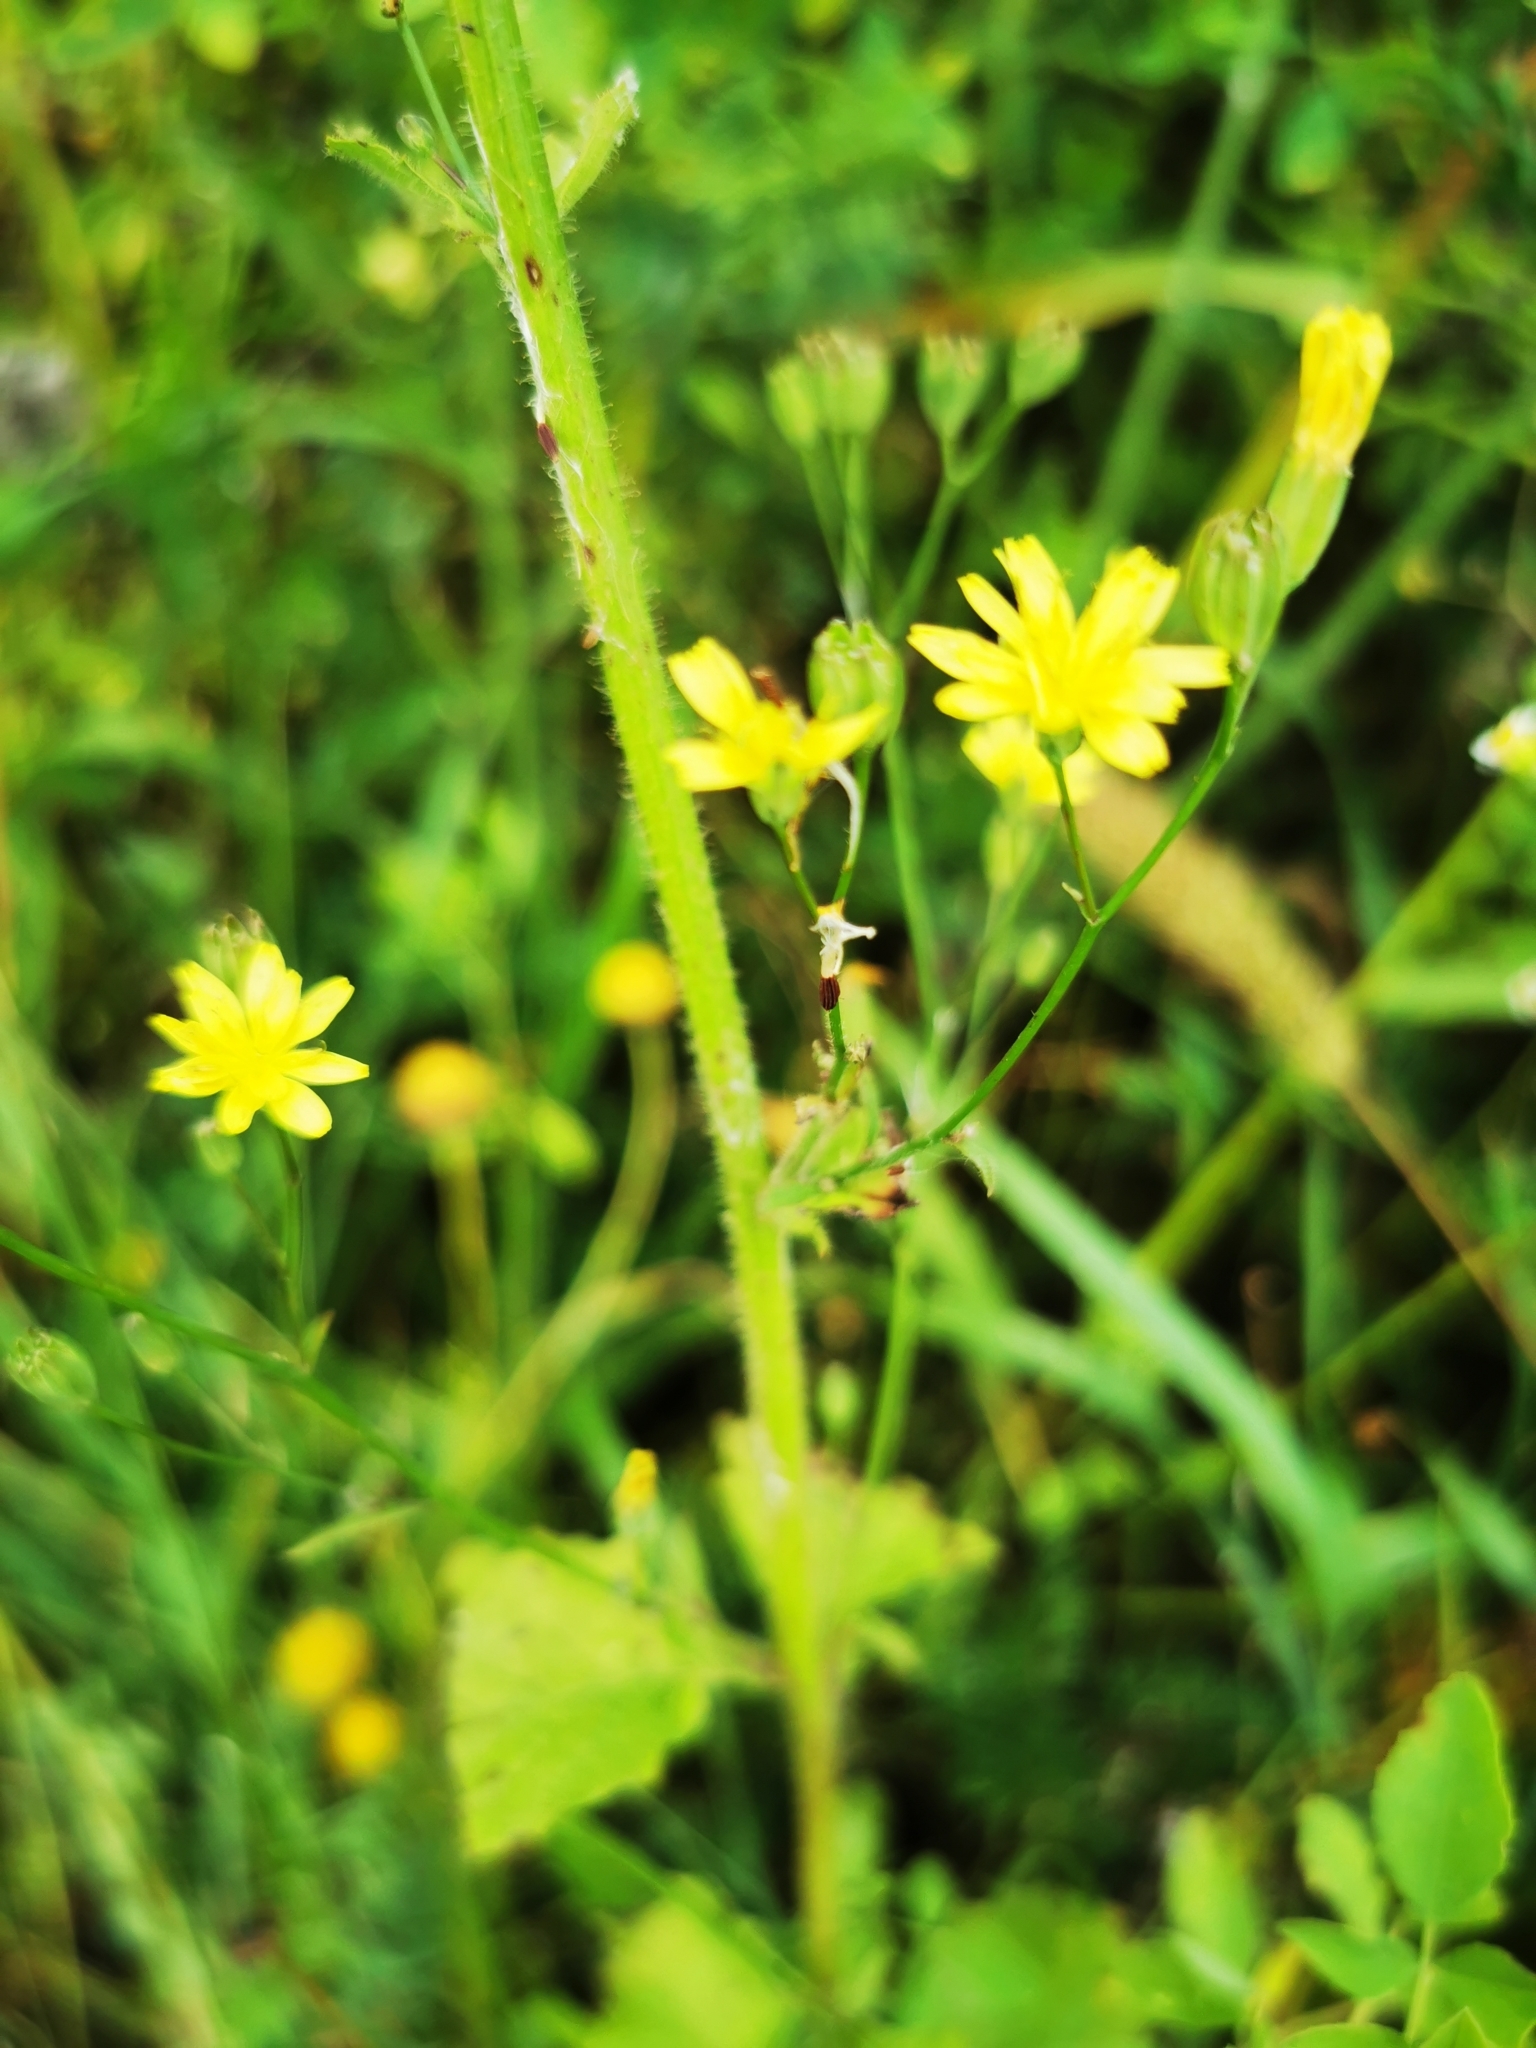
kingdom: Plantae
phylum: Tracheophyta
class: Magnoliopsida
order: Asterales
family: Asteraceae
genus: Lapsana
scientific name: Lapsana communis
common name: Nipplewort
